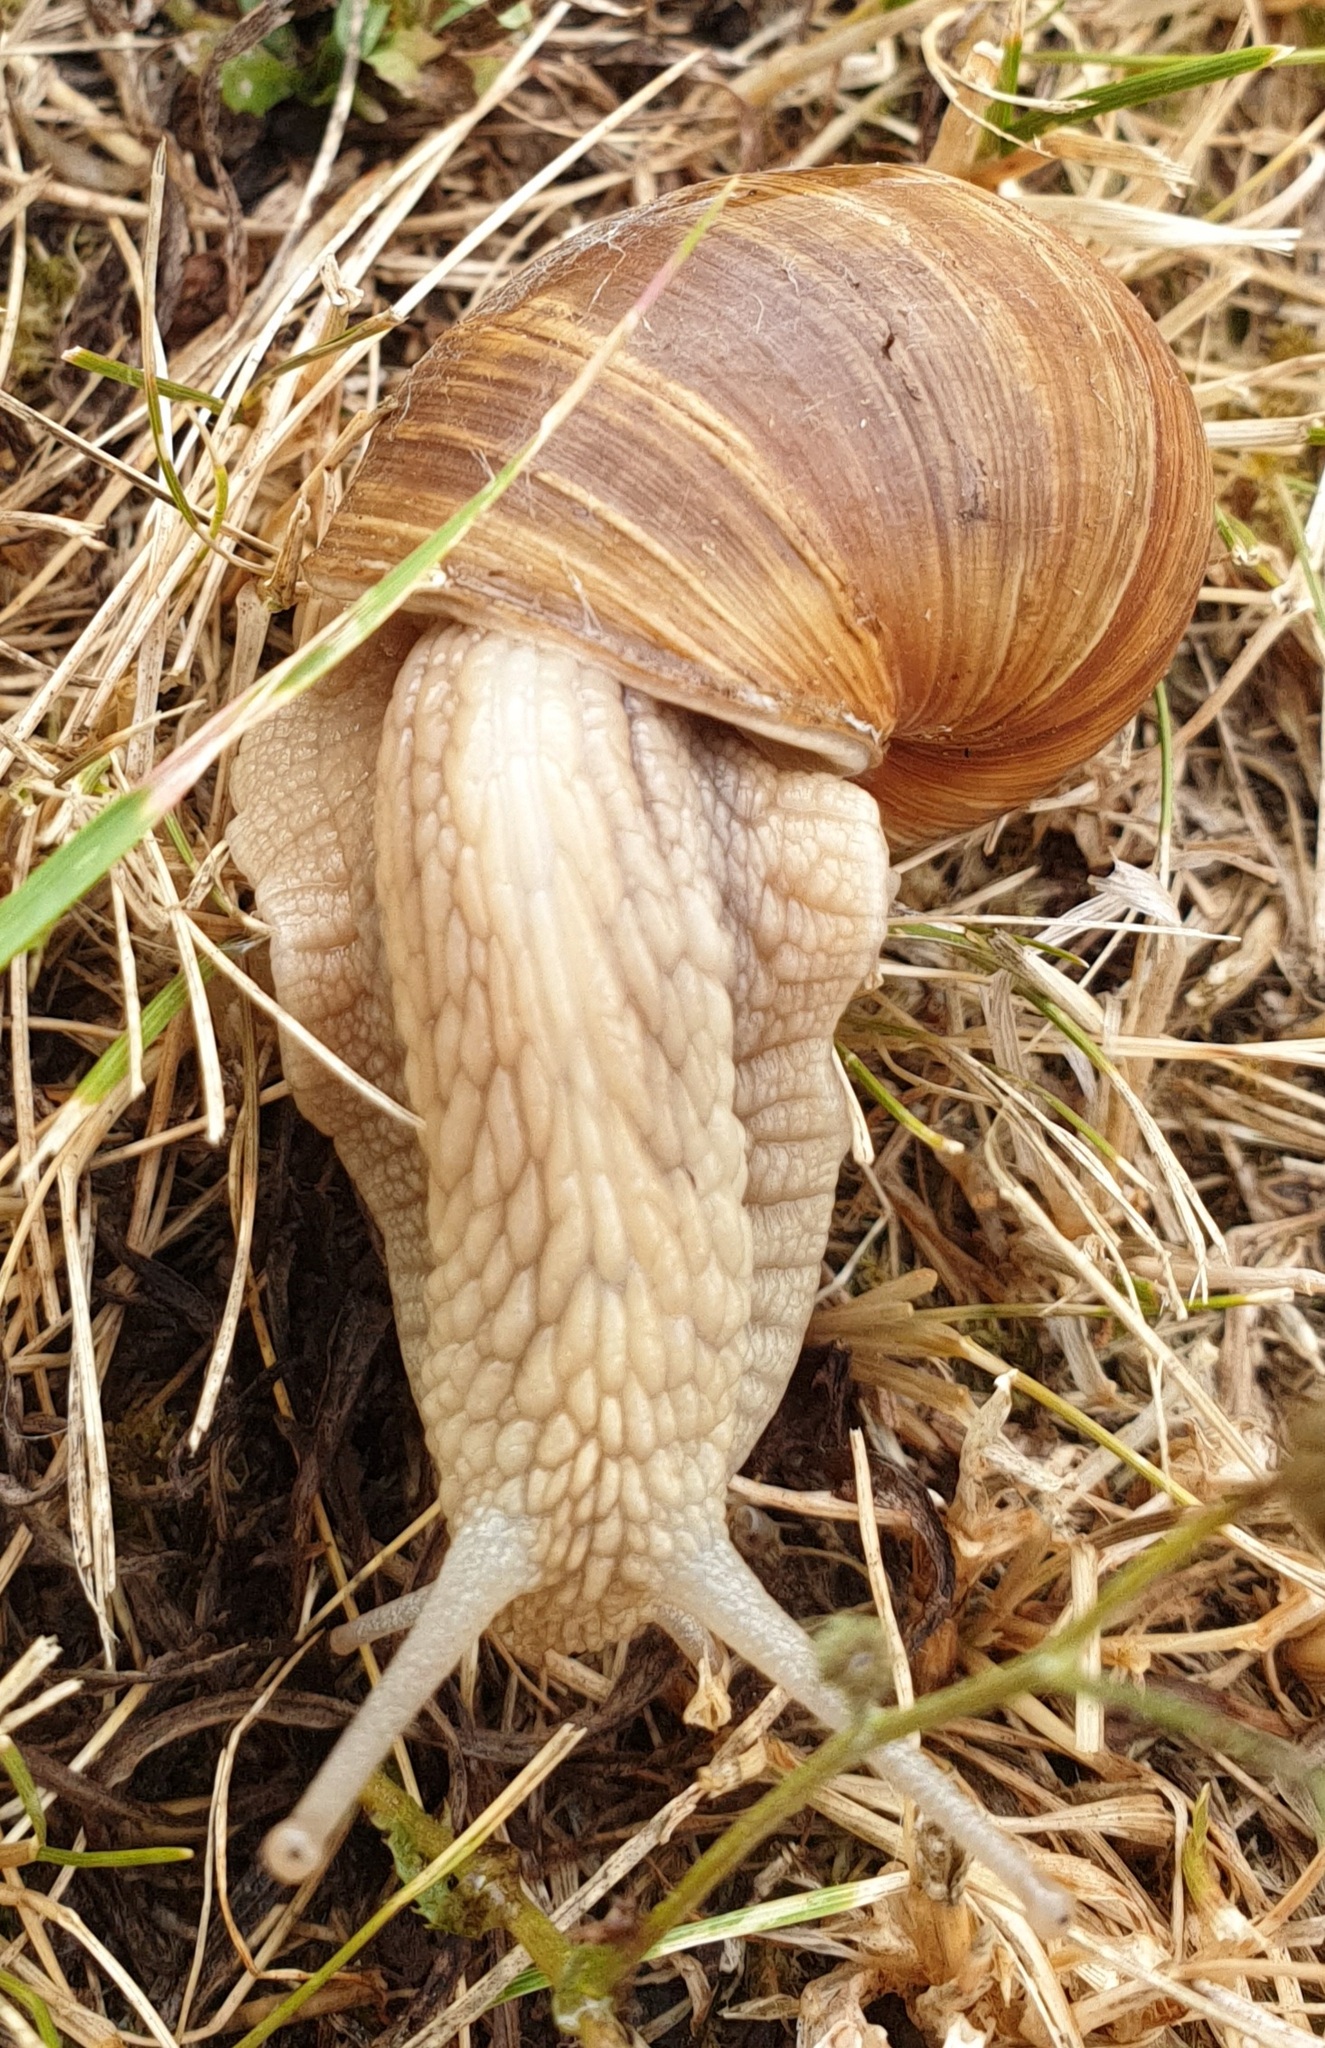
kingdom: Animalia
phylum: Mollusca
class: Gastropoda
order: Stylommatophora
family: Helicidae
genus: Cepaea
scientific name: Cepaea nemoralis
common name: Grovesnail
